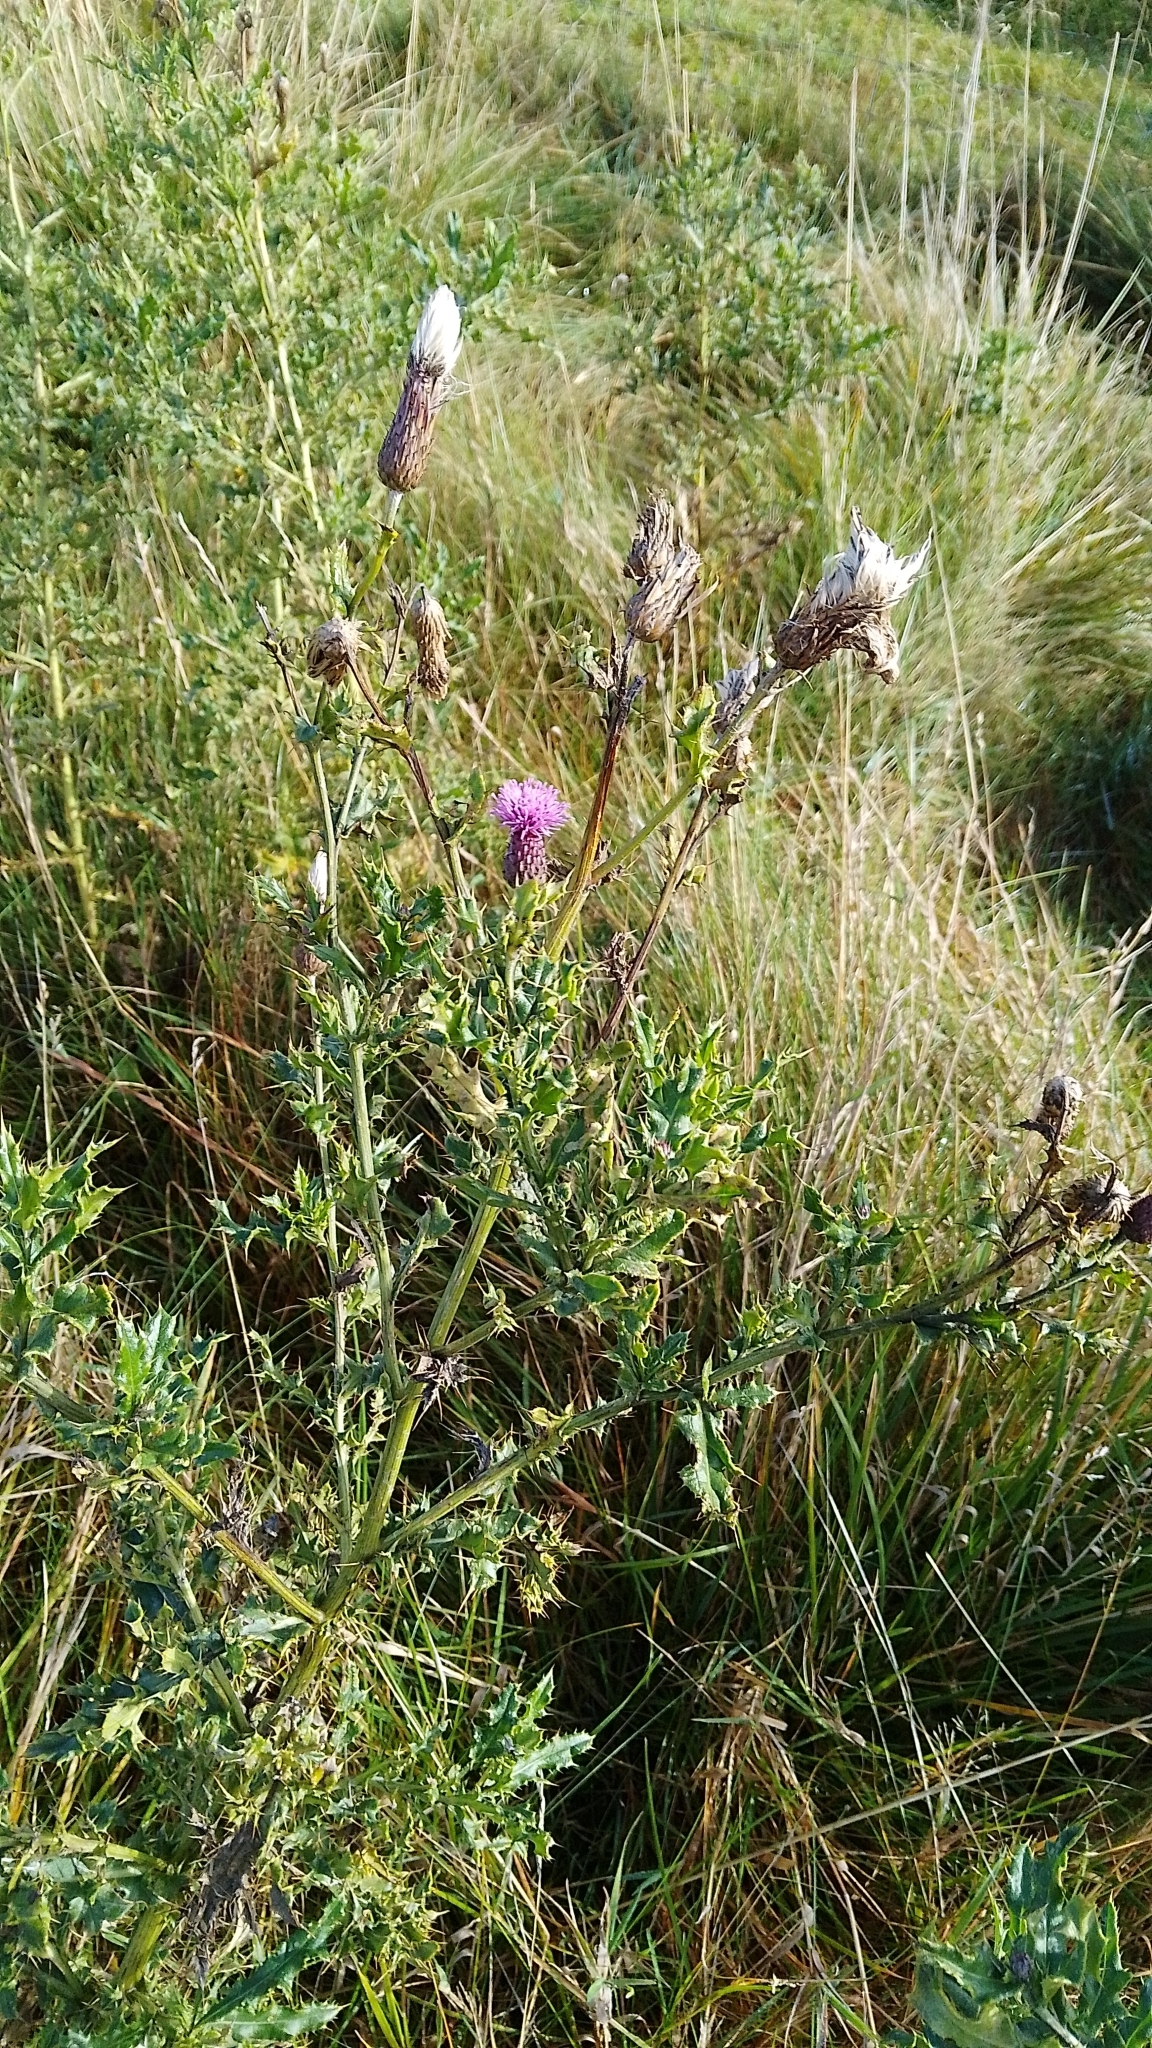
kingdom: Plantae
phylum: Tracheophyta
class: Magnoliopsida
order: Asterales
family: Asteraceae
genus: Cirsium
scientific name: Cirsium arvense
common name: Creeping thistle
